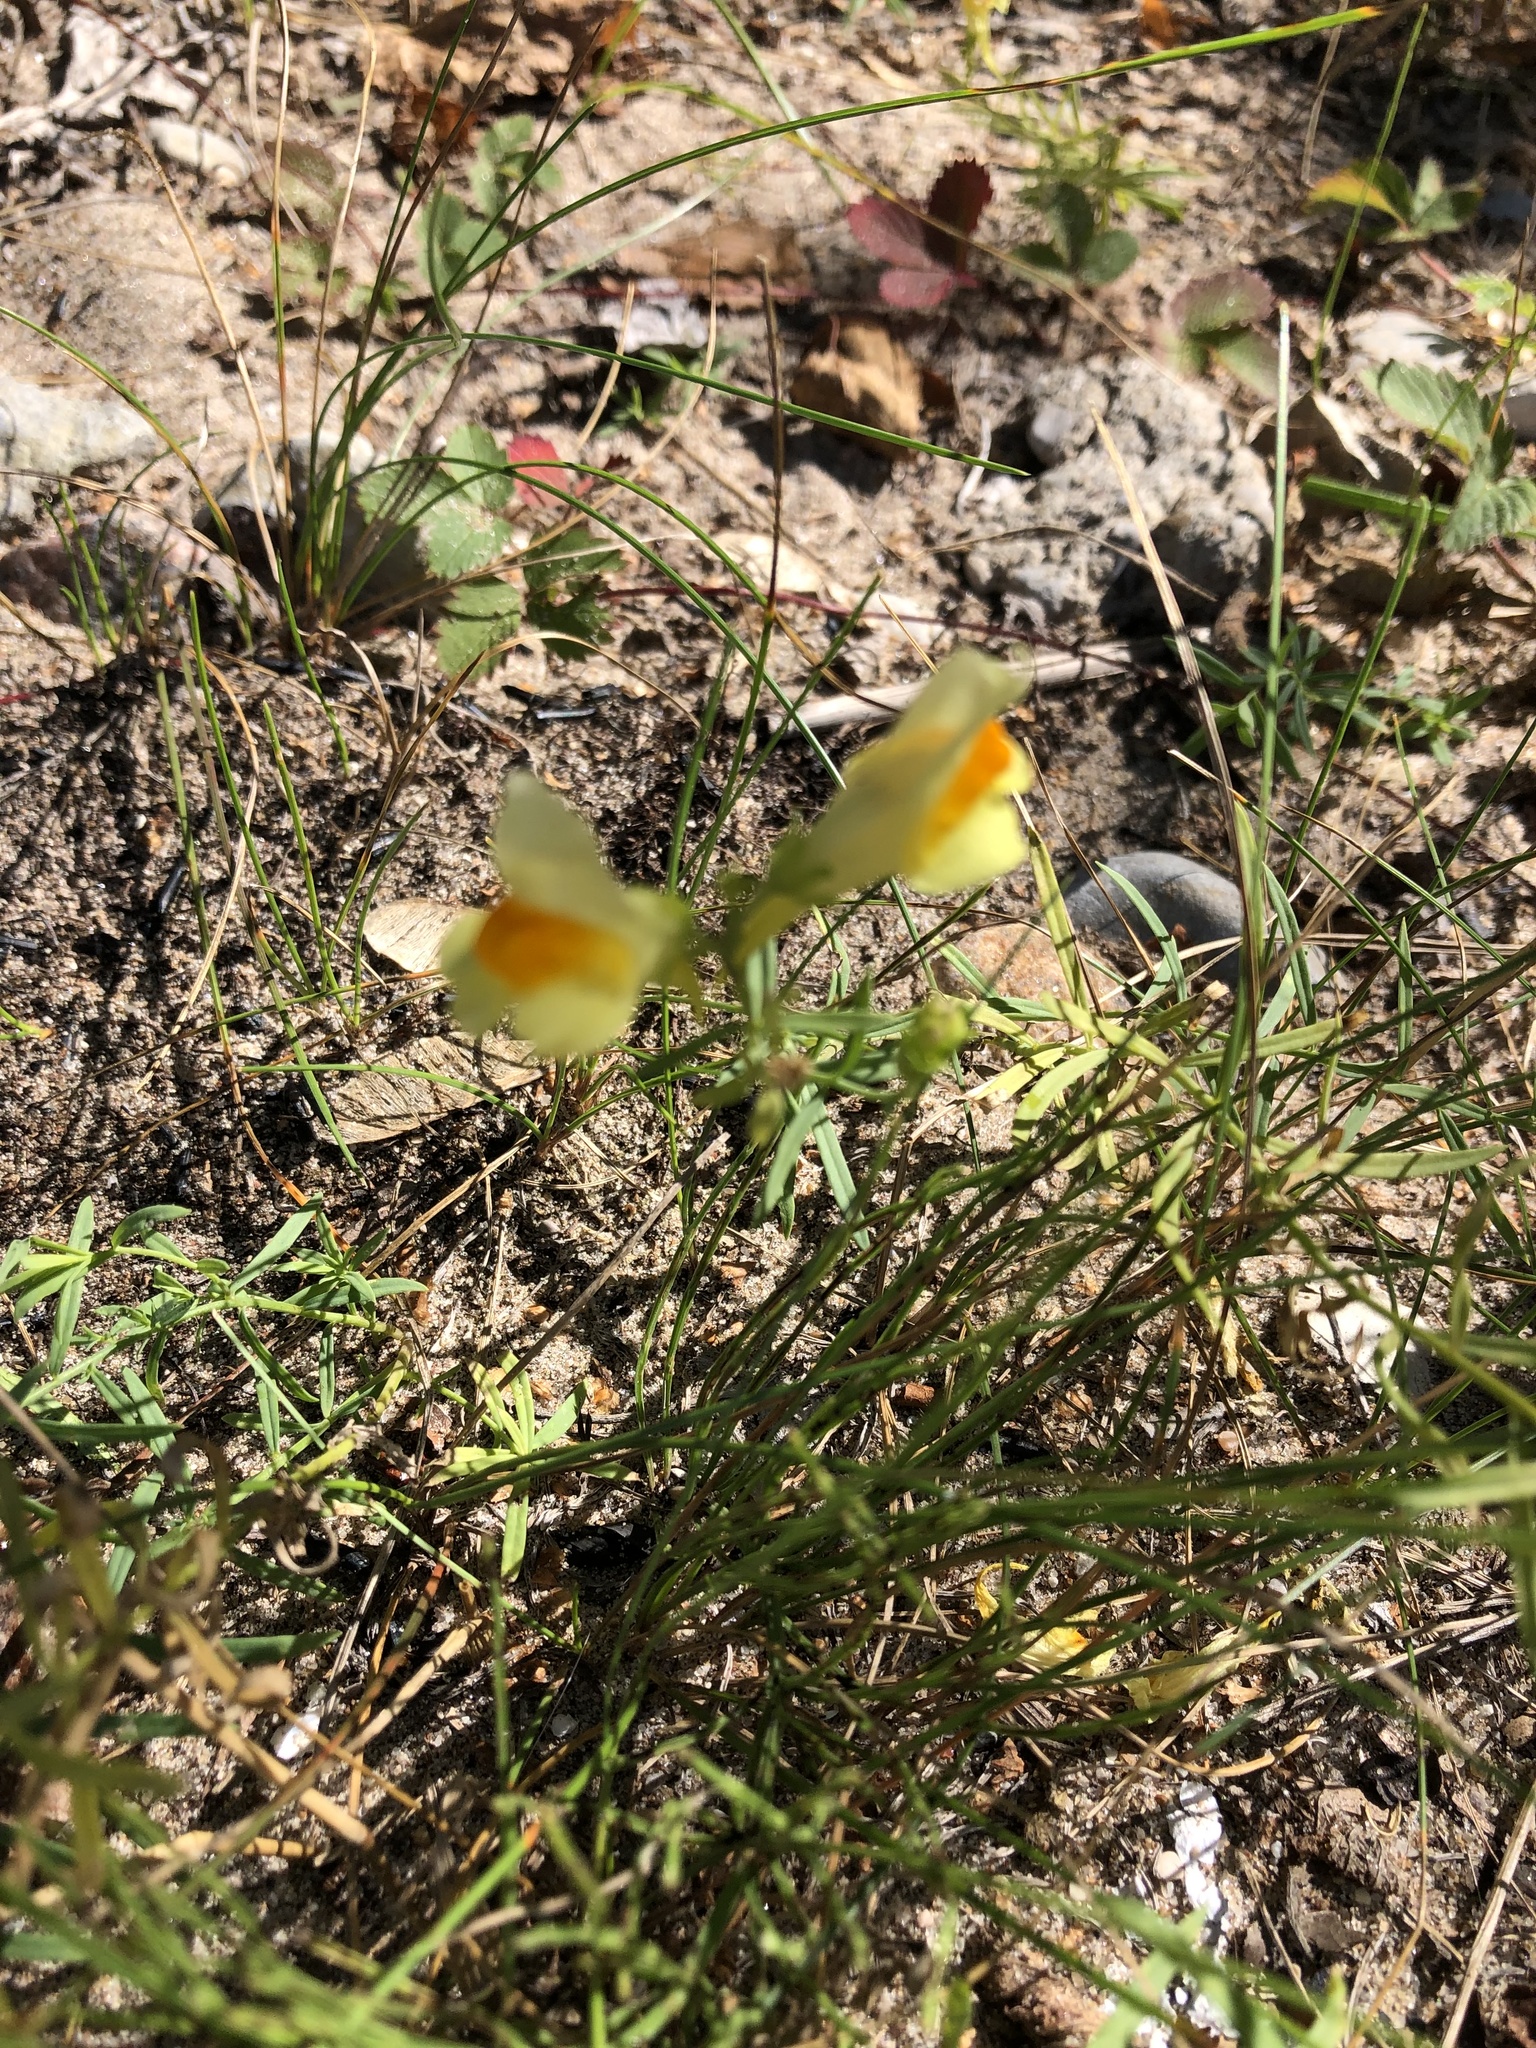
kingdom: Plantae
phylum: Tracheophyta
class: Magnoliopsida
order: Lamiales
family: Plantaginaceae
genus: Linaria
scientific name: Linaria vulgaris
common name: Butter and eggs
